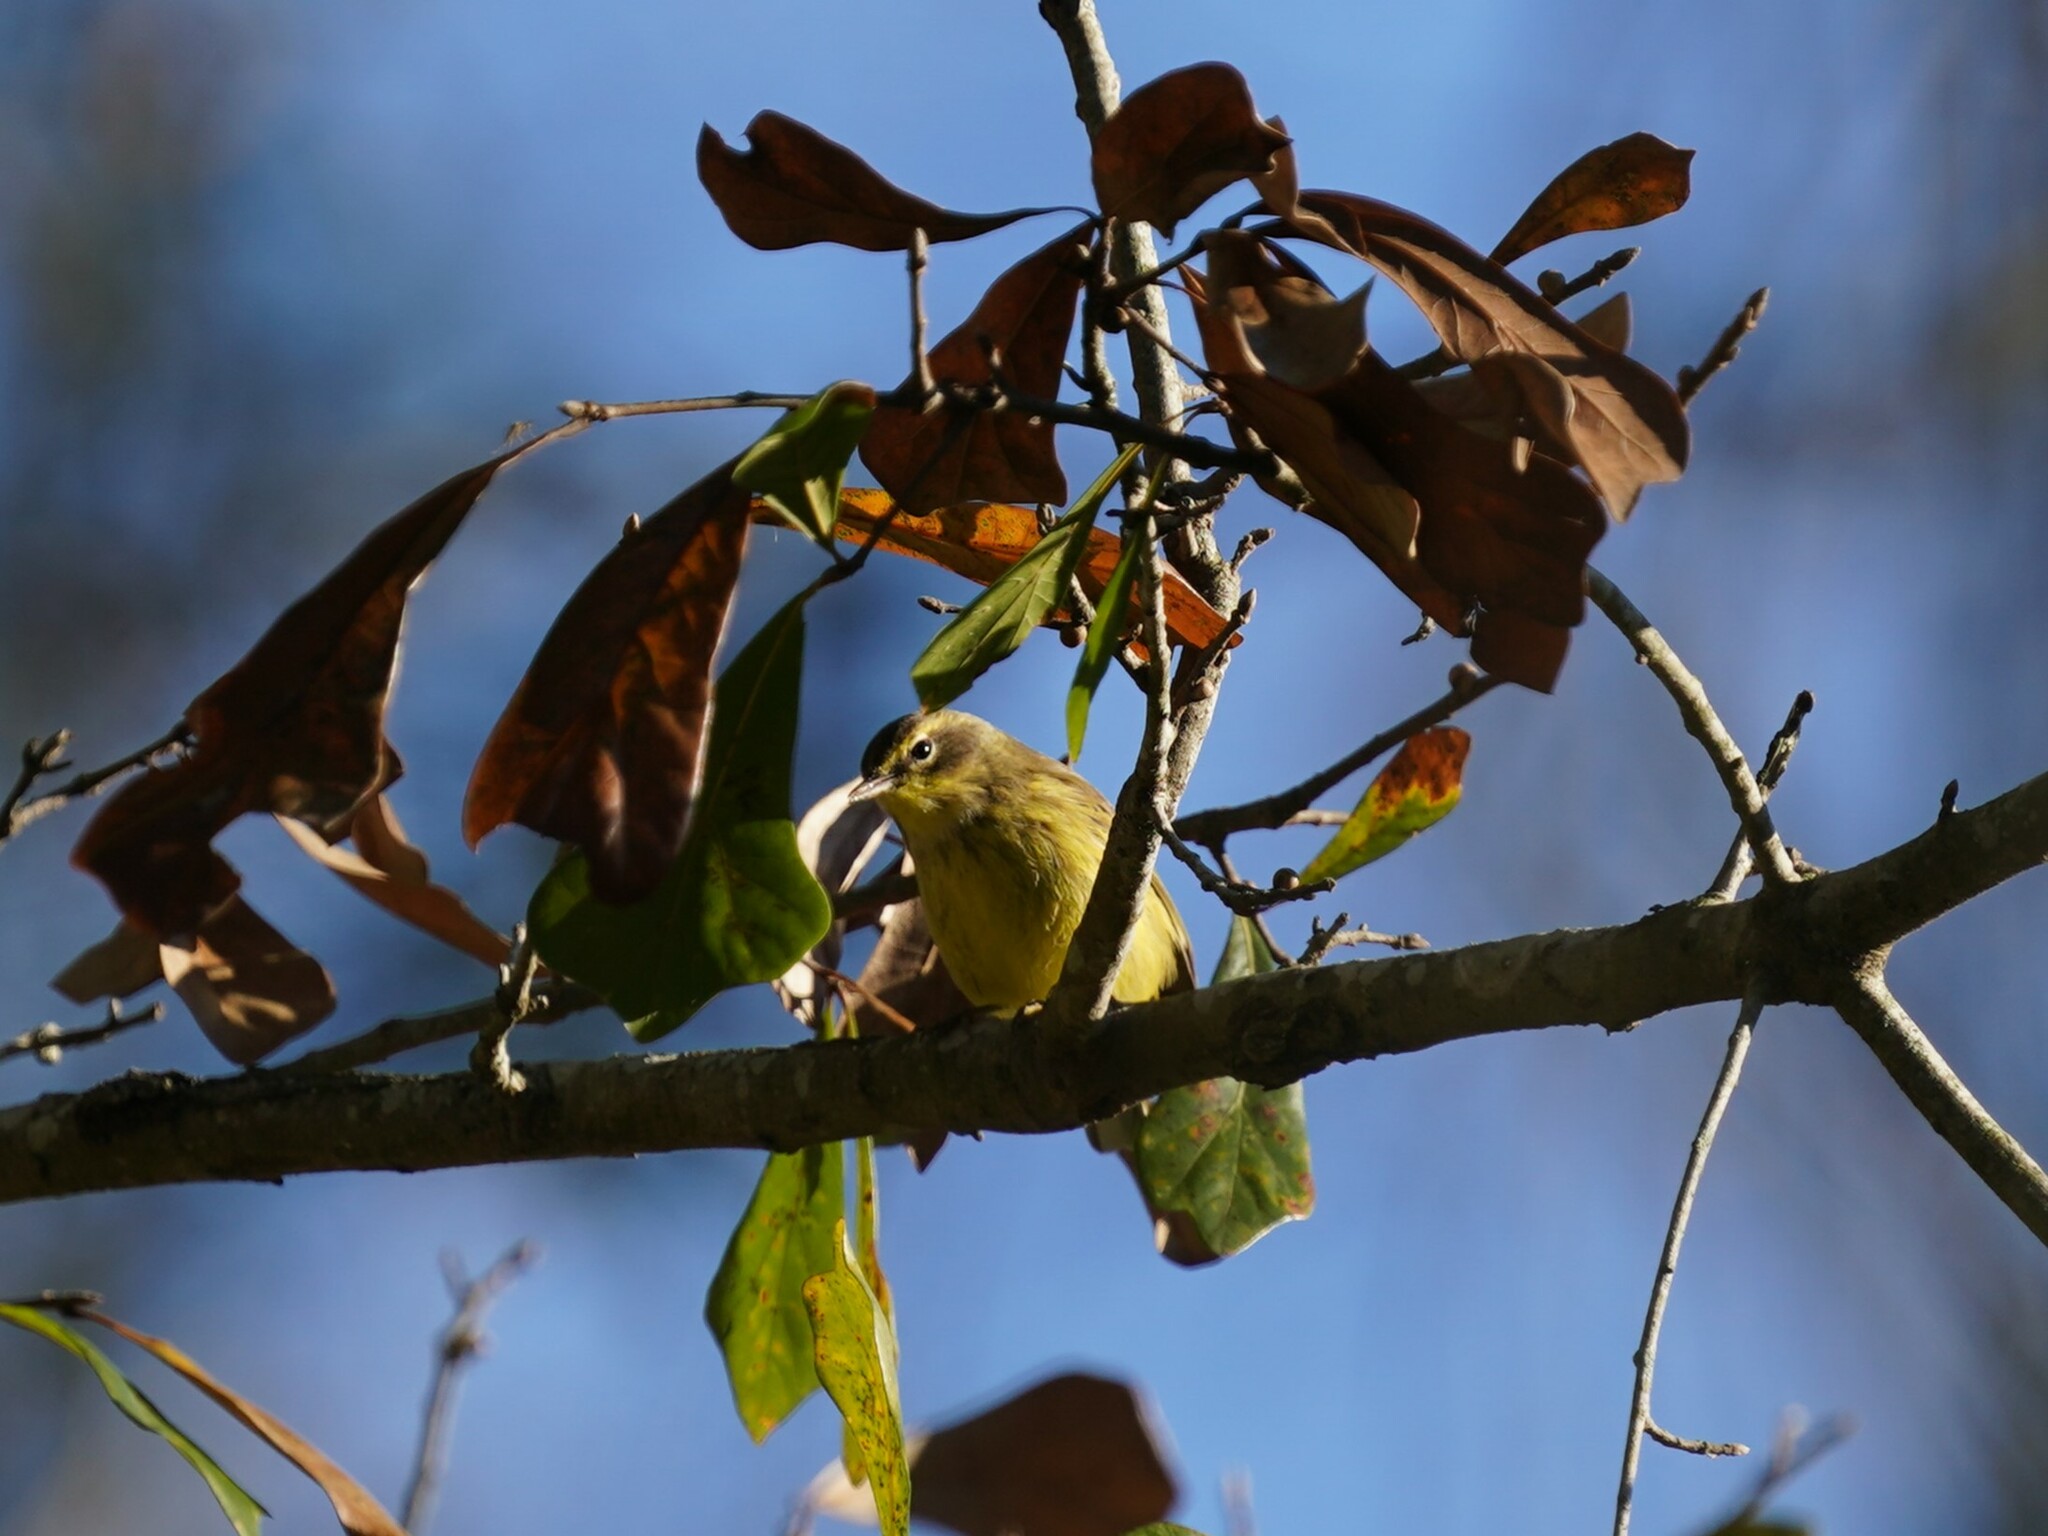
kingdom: Animalia
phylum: Chordata
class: Aves
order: Passeriformes
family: Parulidae
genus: Setophaga
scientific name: Setophaga palmarum
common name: Palm warbler
